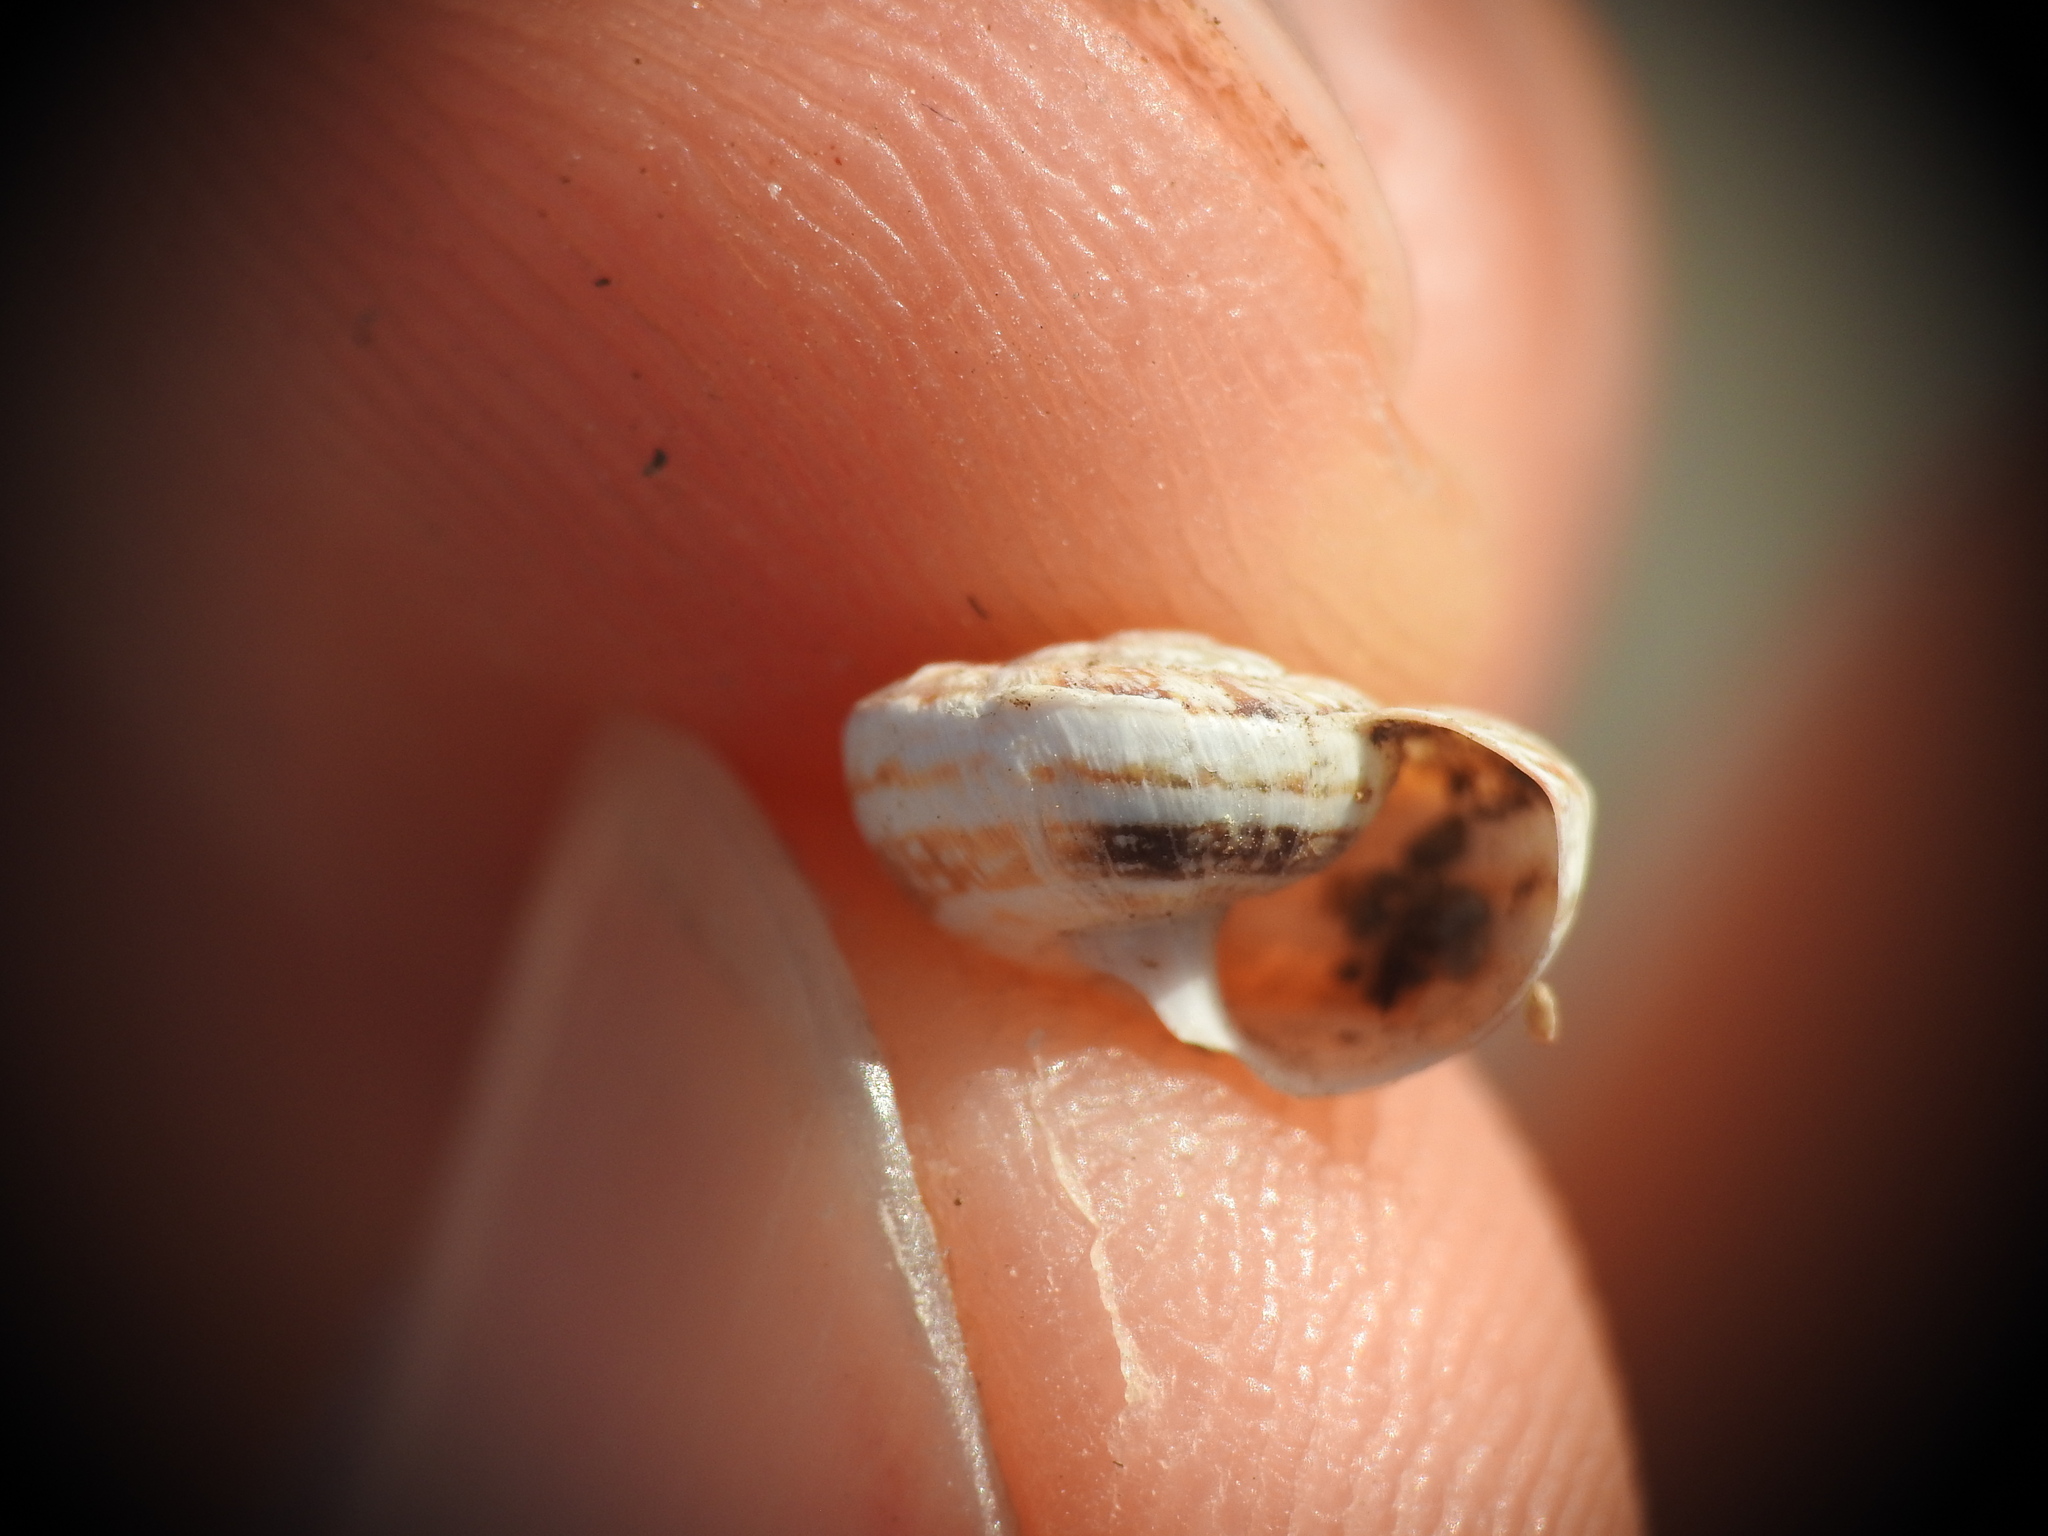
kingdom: Animalia
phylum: Mollusca
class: Gastropoda
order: Stylommatophora
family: Geomitridae
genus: Xerocrassa
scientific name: Xerocrassa cretica
